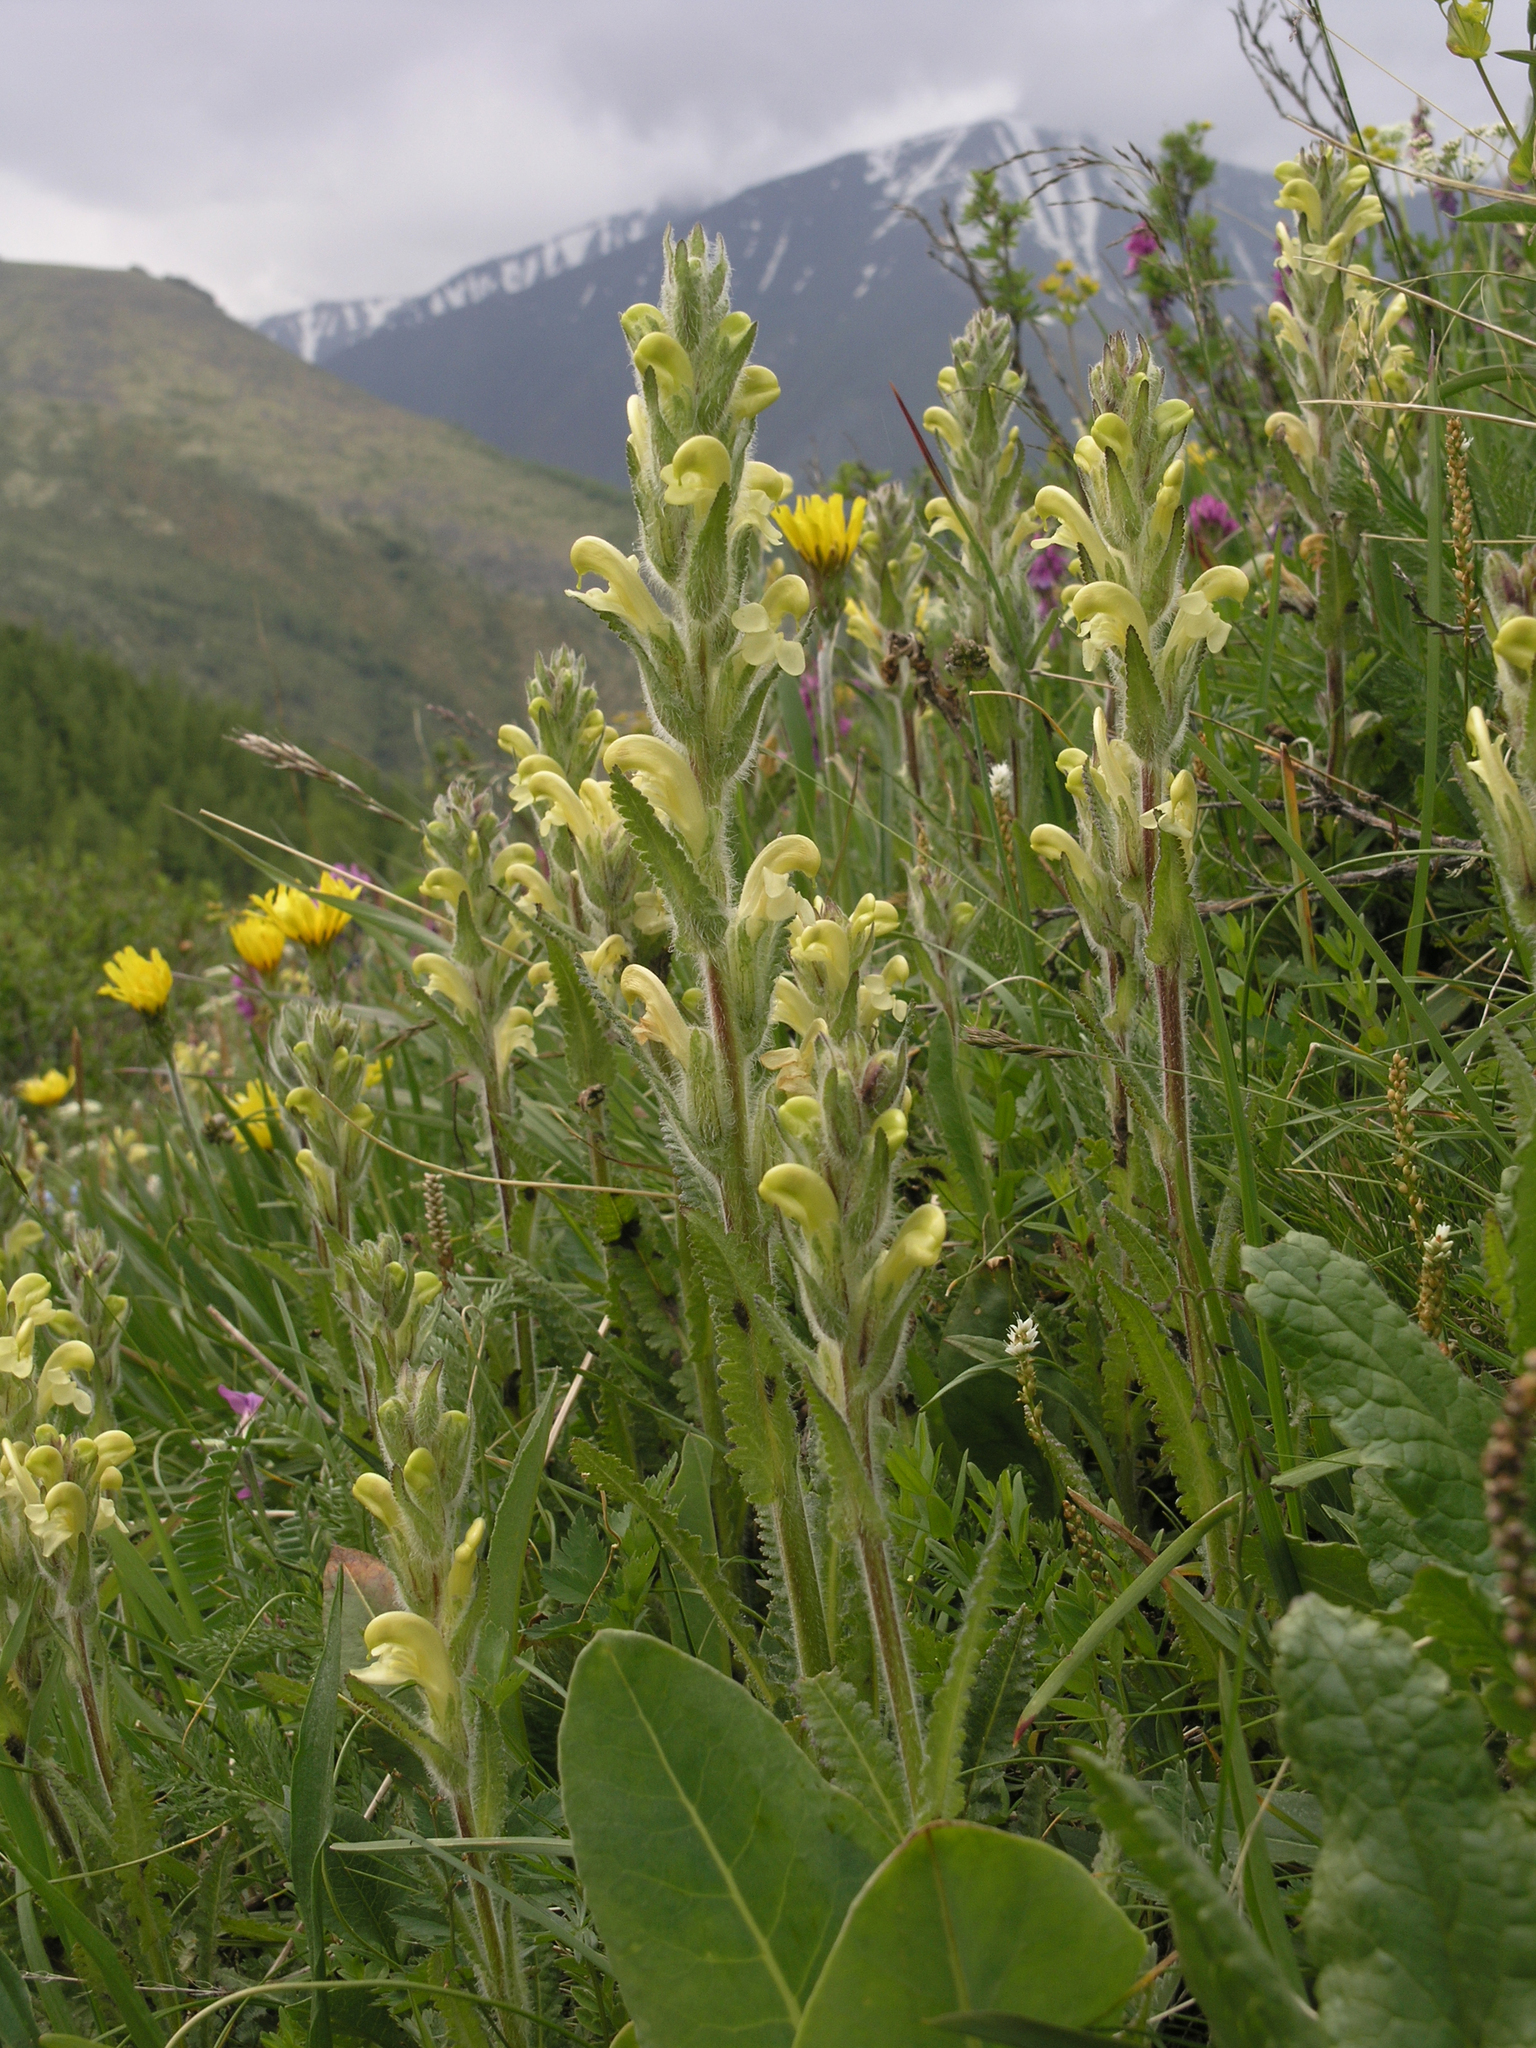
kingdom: Plantae
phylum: Tracheophyta
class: Magnoliopsida
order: Lamiales
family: Orobanchaceae
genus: Pedicularis
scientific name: Pedicularis tristis
